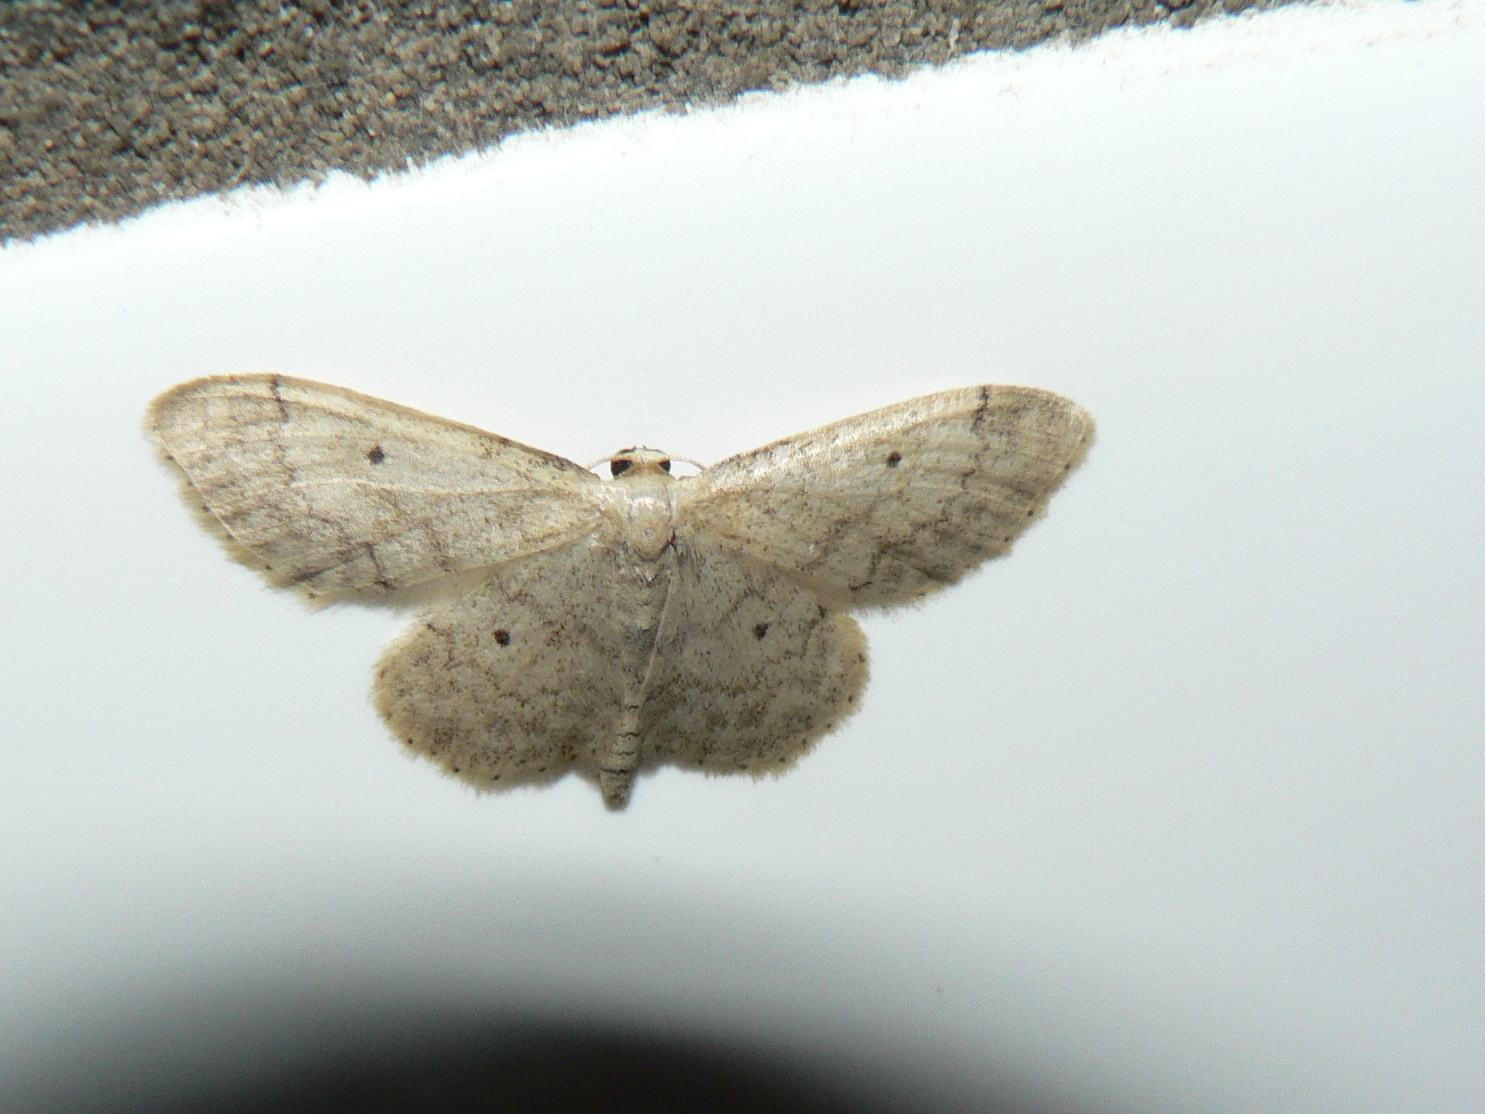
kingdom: Animalia
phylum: Arthropoda
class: Insecta
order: Lepidoptera
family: Geometridae
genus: Idaea
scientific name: Idaea biselata
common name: Small fan-footed wave
